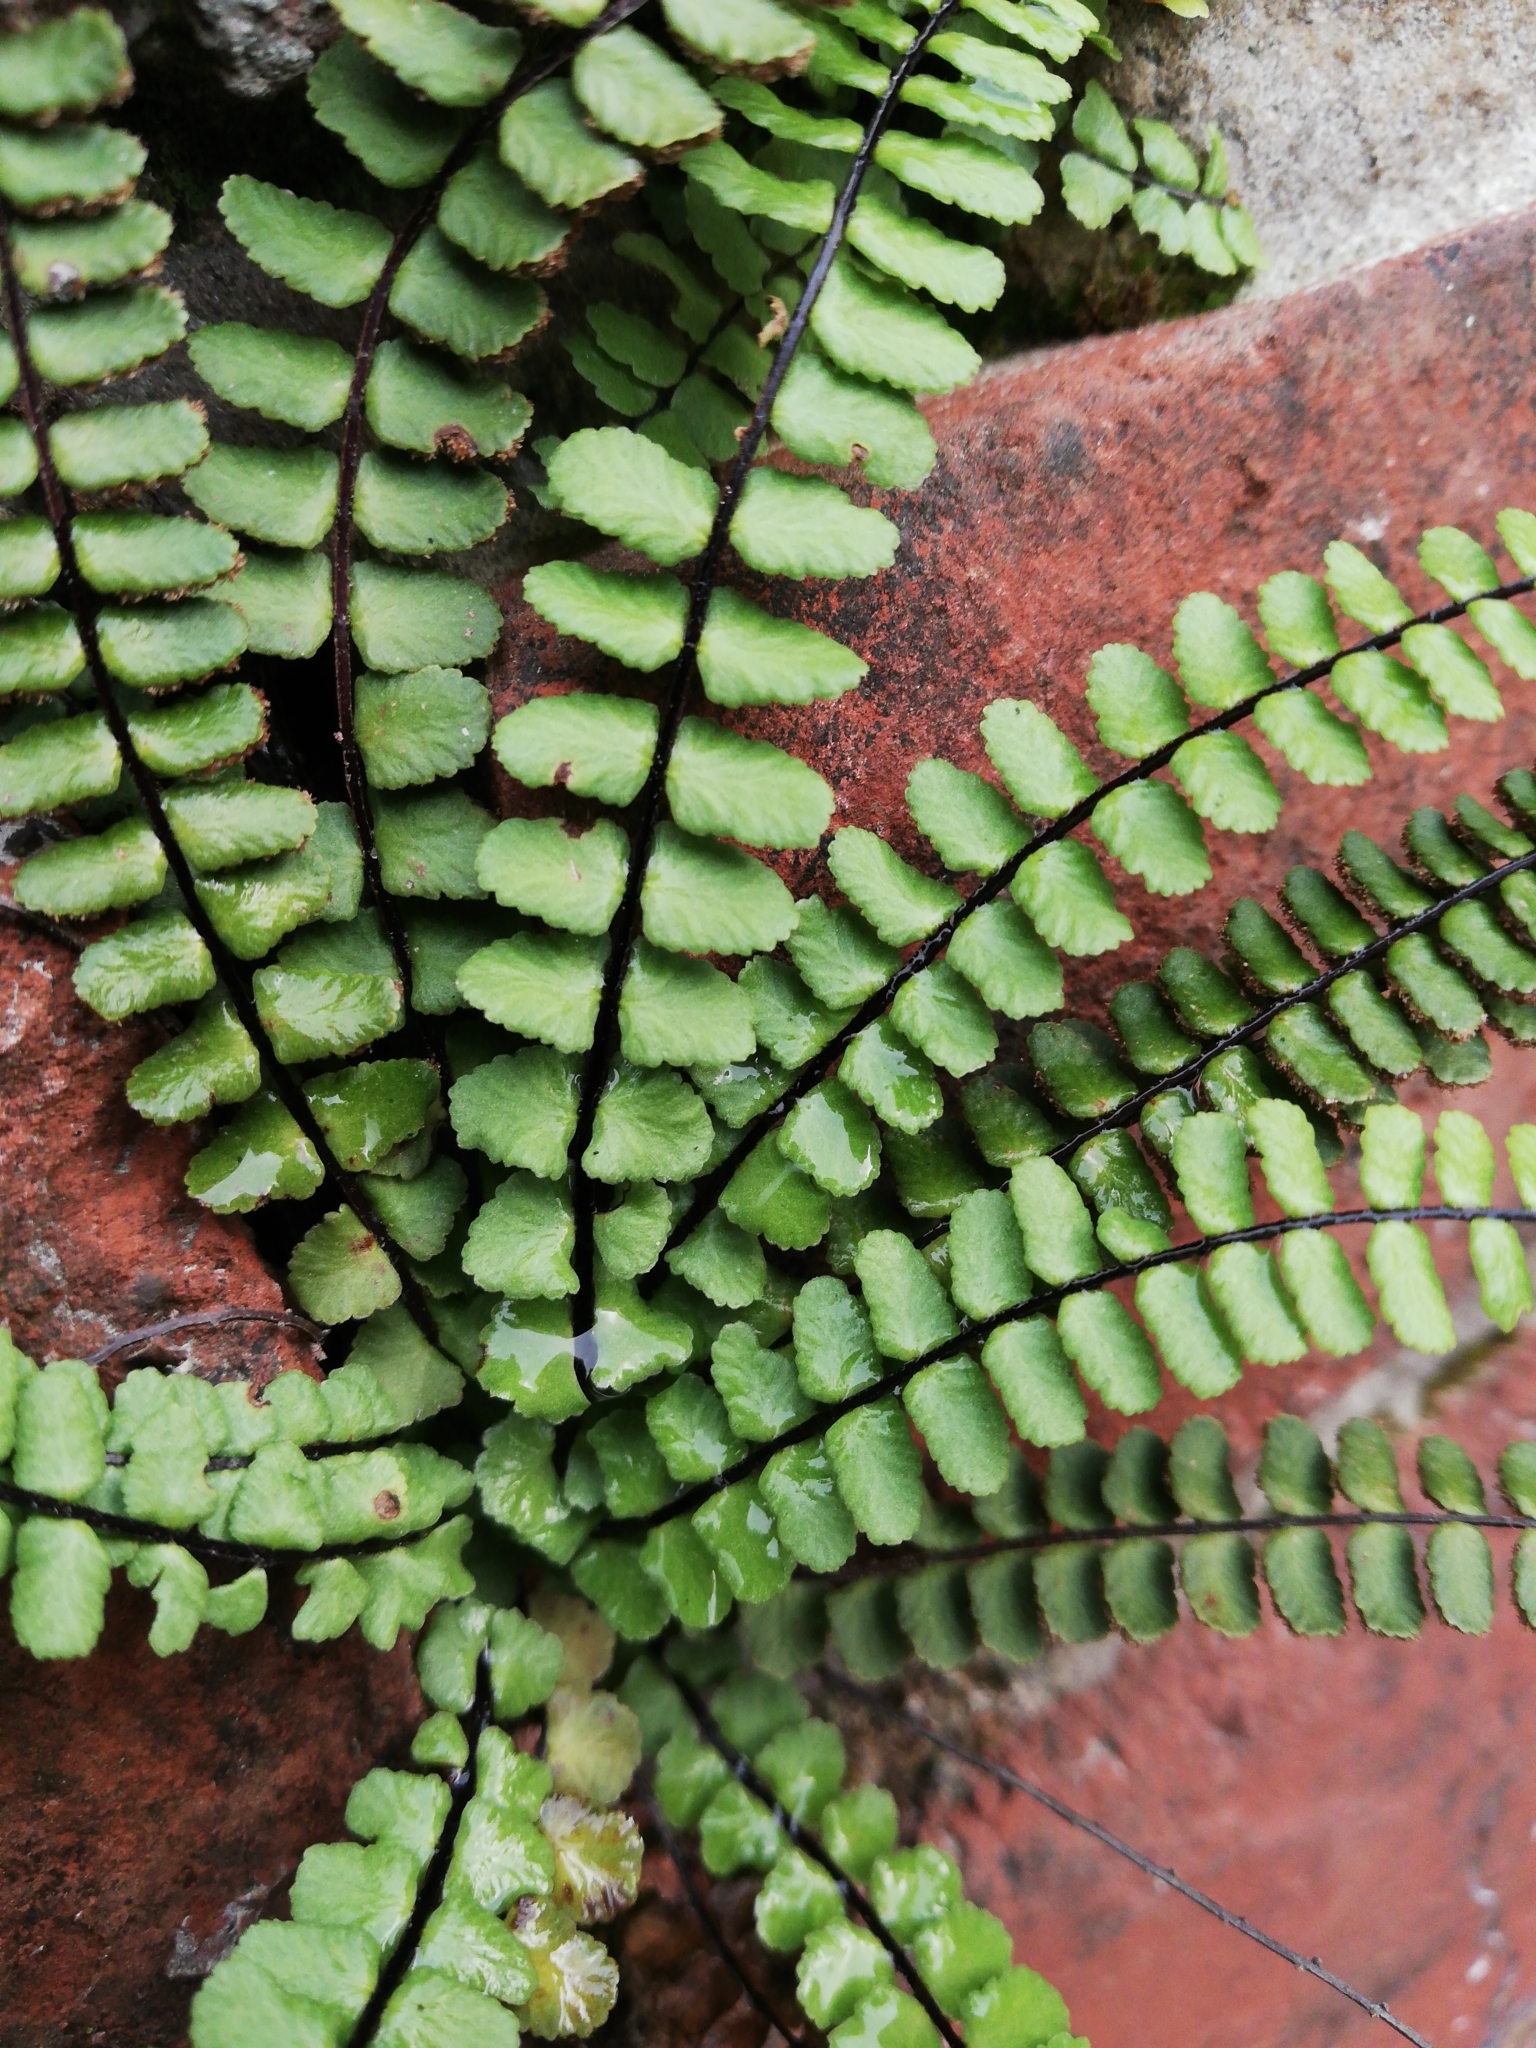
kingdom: Plantae
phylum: Tracheophyta
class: Polypodiopsida
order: Polypodiales
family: Aspleniaceae
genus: Asplenium
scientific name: Asplenium trichomanes
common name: Maidenhair spleenwort
